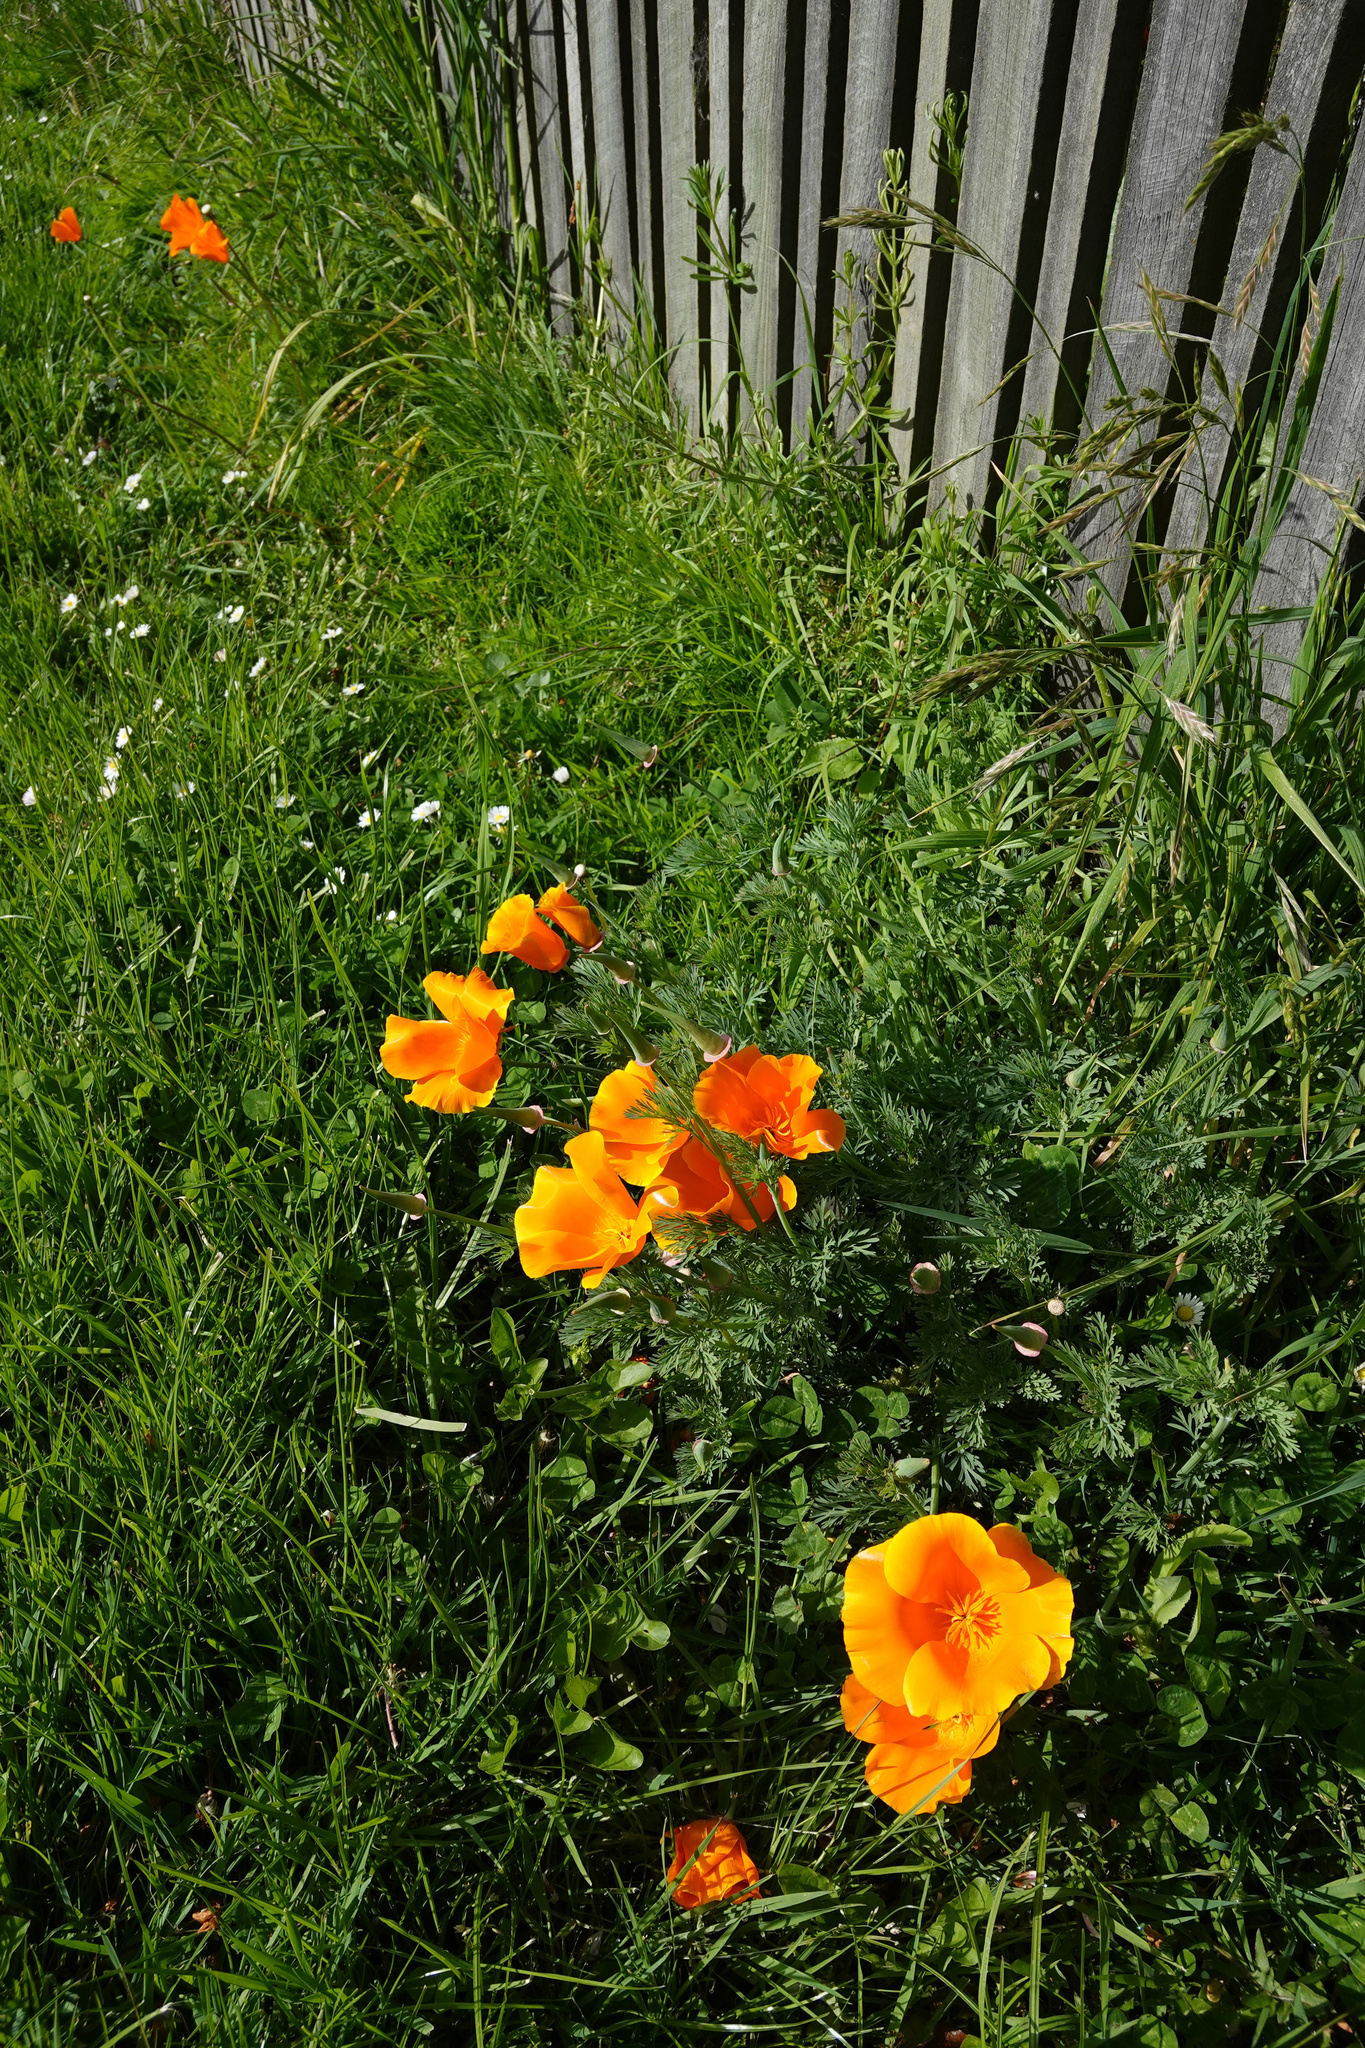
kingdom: Plantae
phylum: Tracheophyta
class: Magnoliopsida
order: Ranunculales
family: Papaveraceae
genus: Eschscholzia
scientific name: Eschscholzia californica
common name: California poppy
